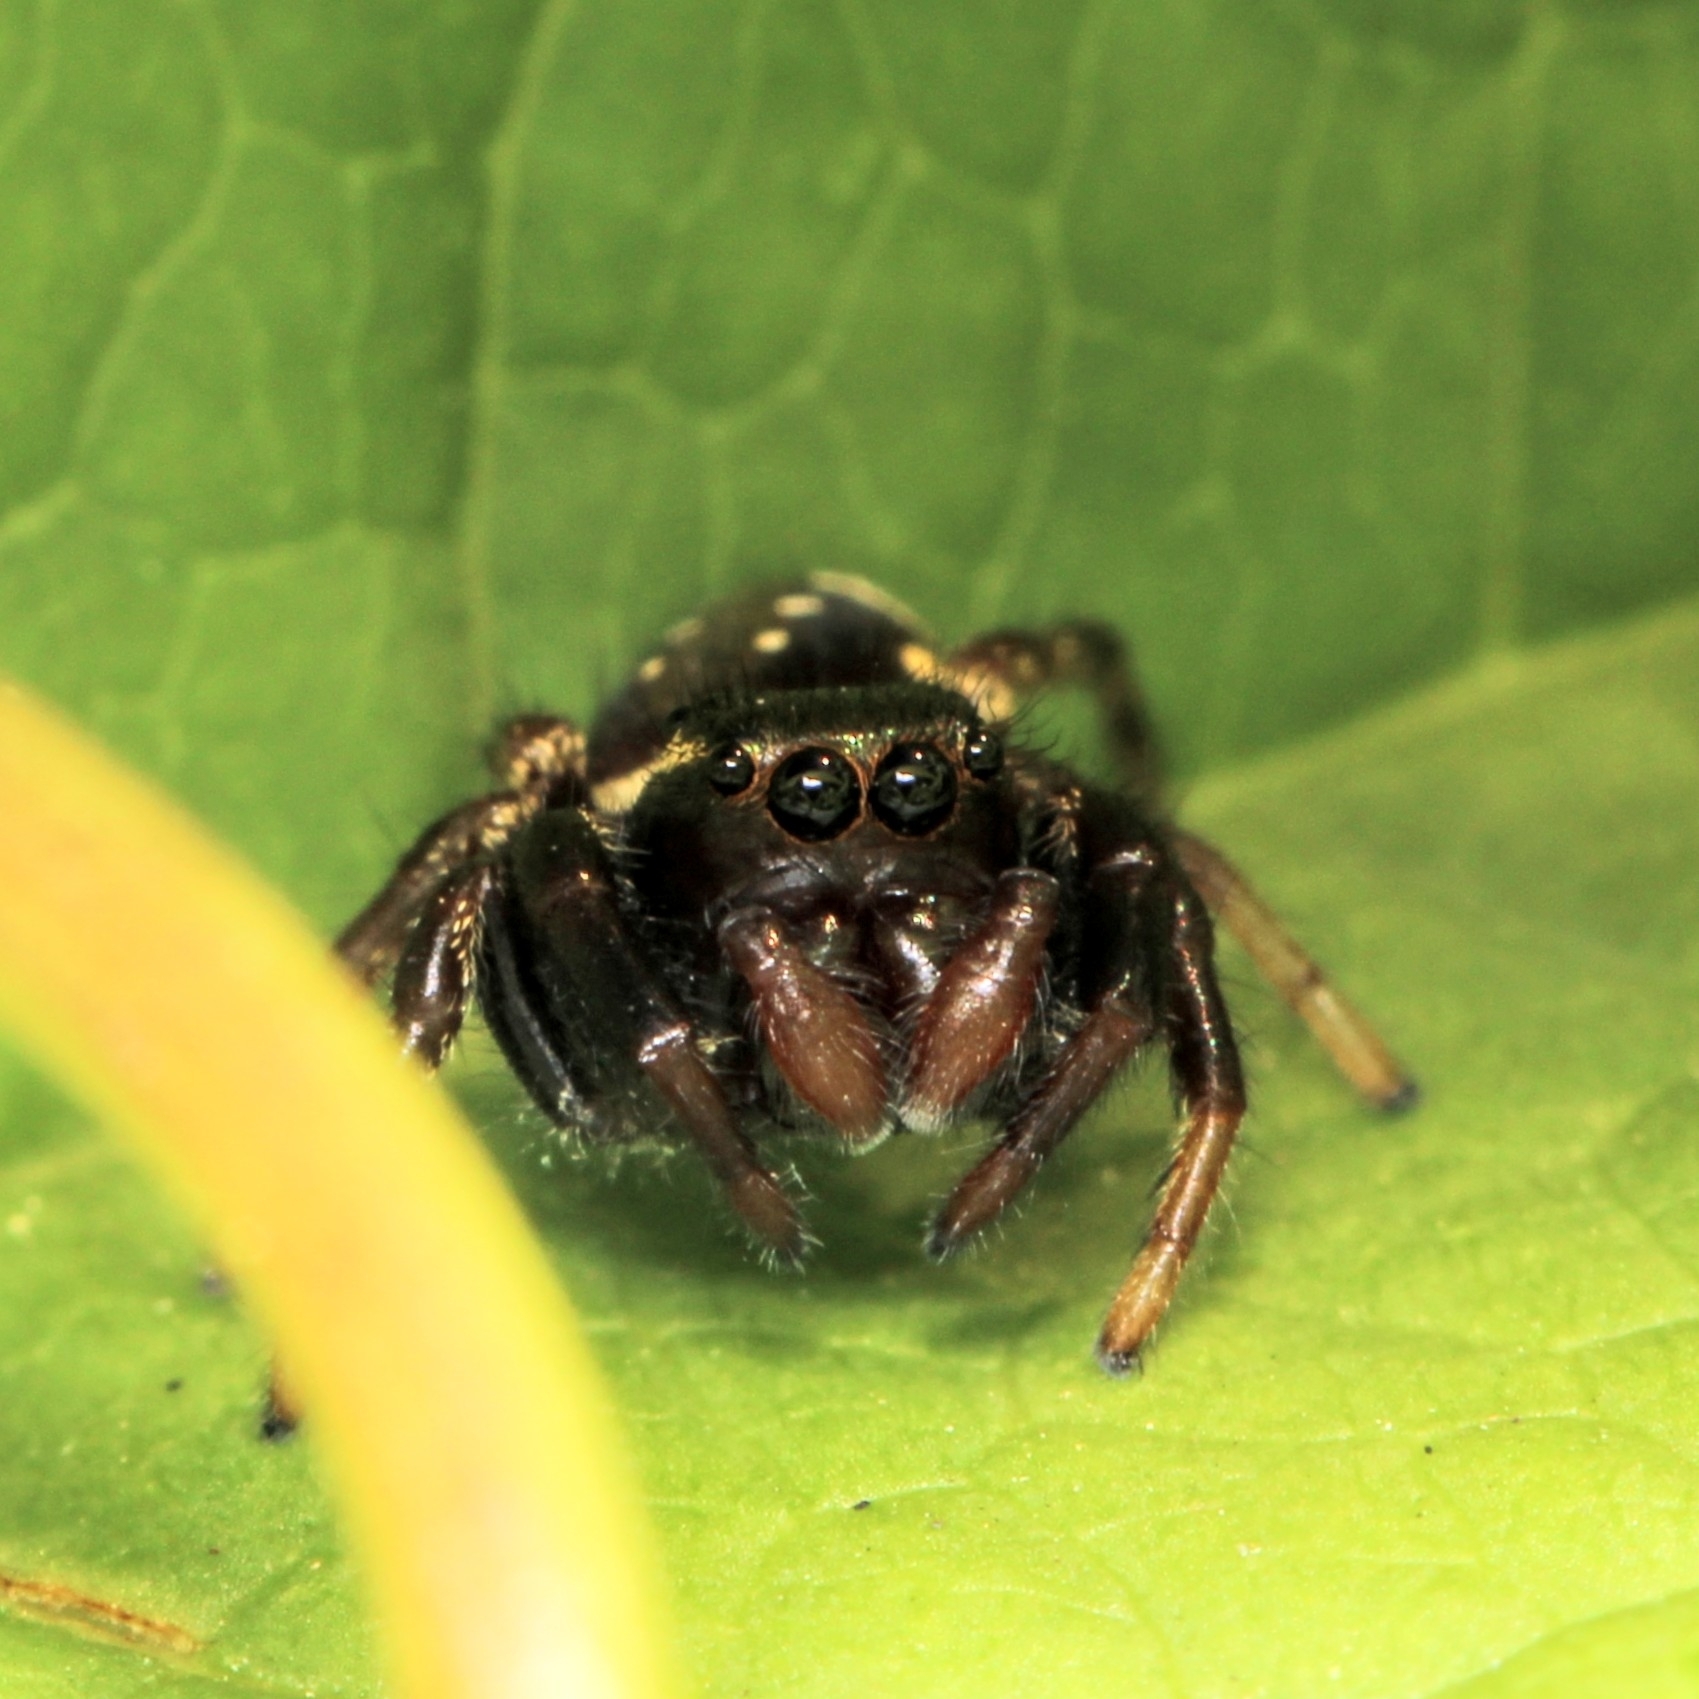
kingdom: Animalia
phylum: Arthropoda
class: Arachnida
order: Araneae
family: Salticidae
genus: Paraphidippus
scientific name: Paraphidippus aurantius
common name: Jumping spiders
